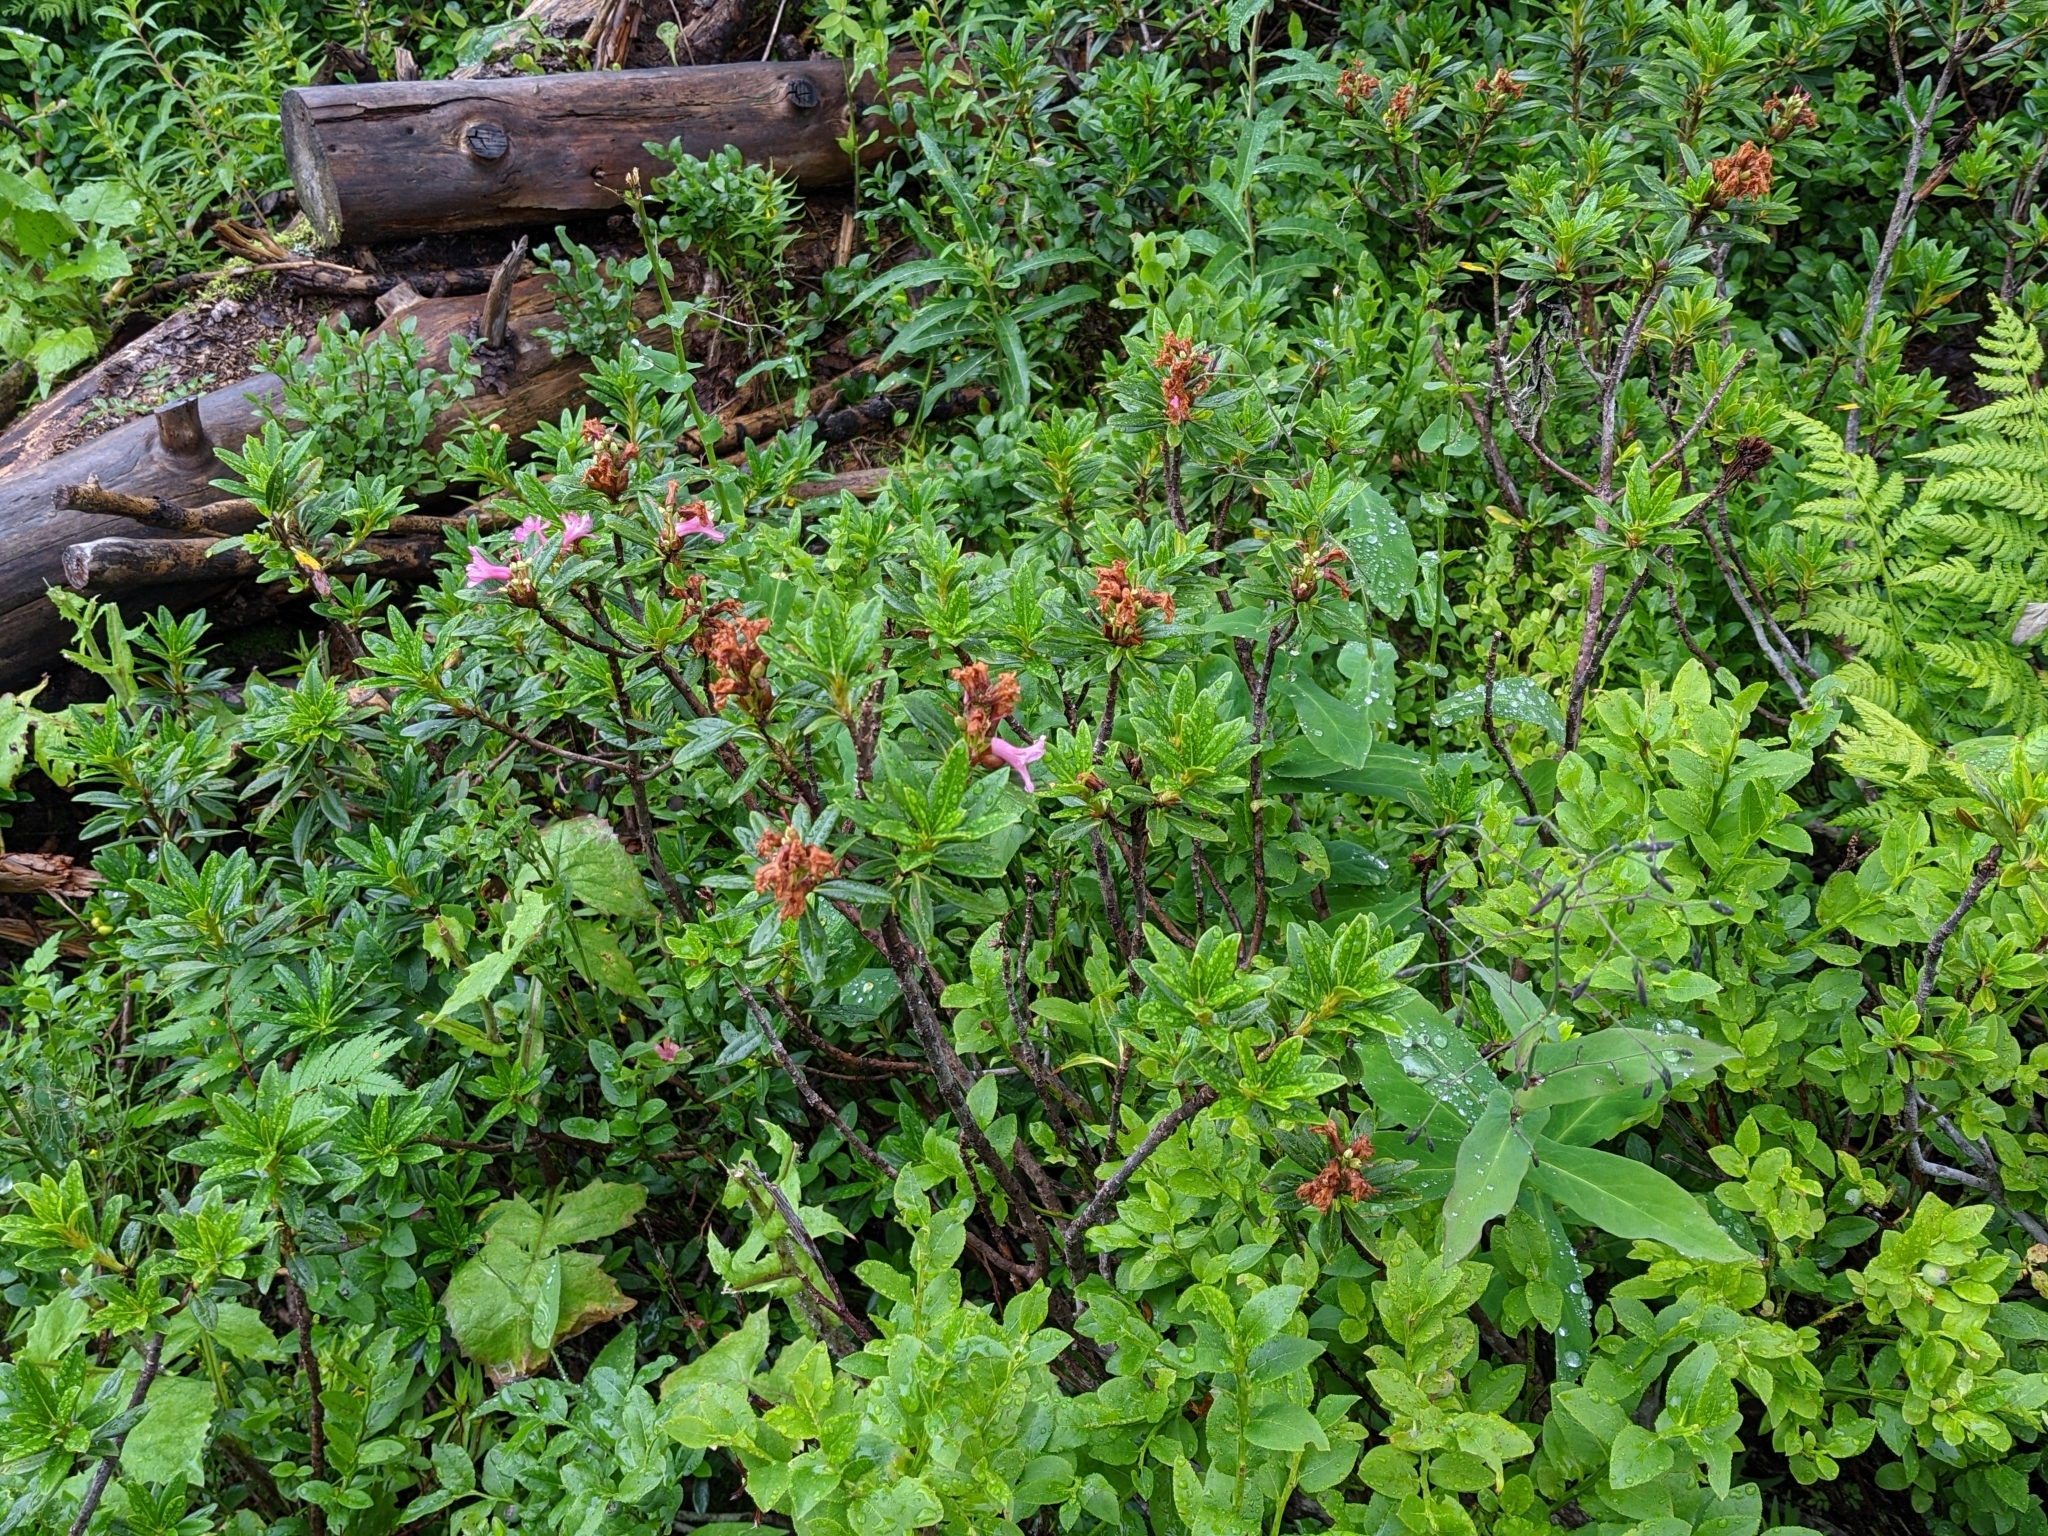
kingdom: Plantae
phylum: Tracheophyta
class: Magnoliopsida
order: Ericales
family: Ericaceae
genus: Rhododendron
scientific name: Rhododendron ferrugineum
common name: Alpenrose
